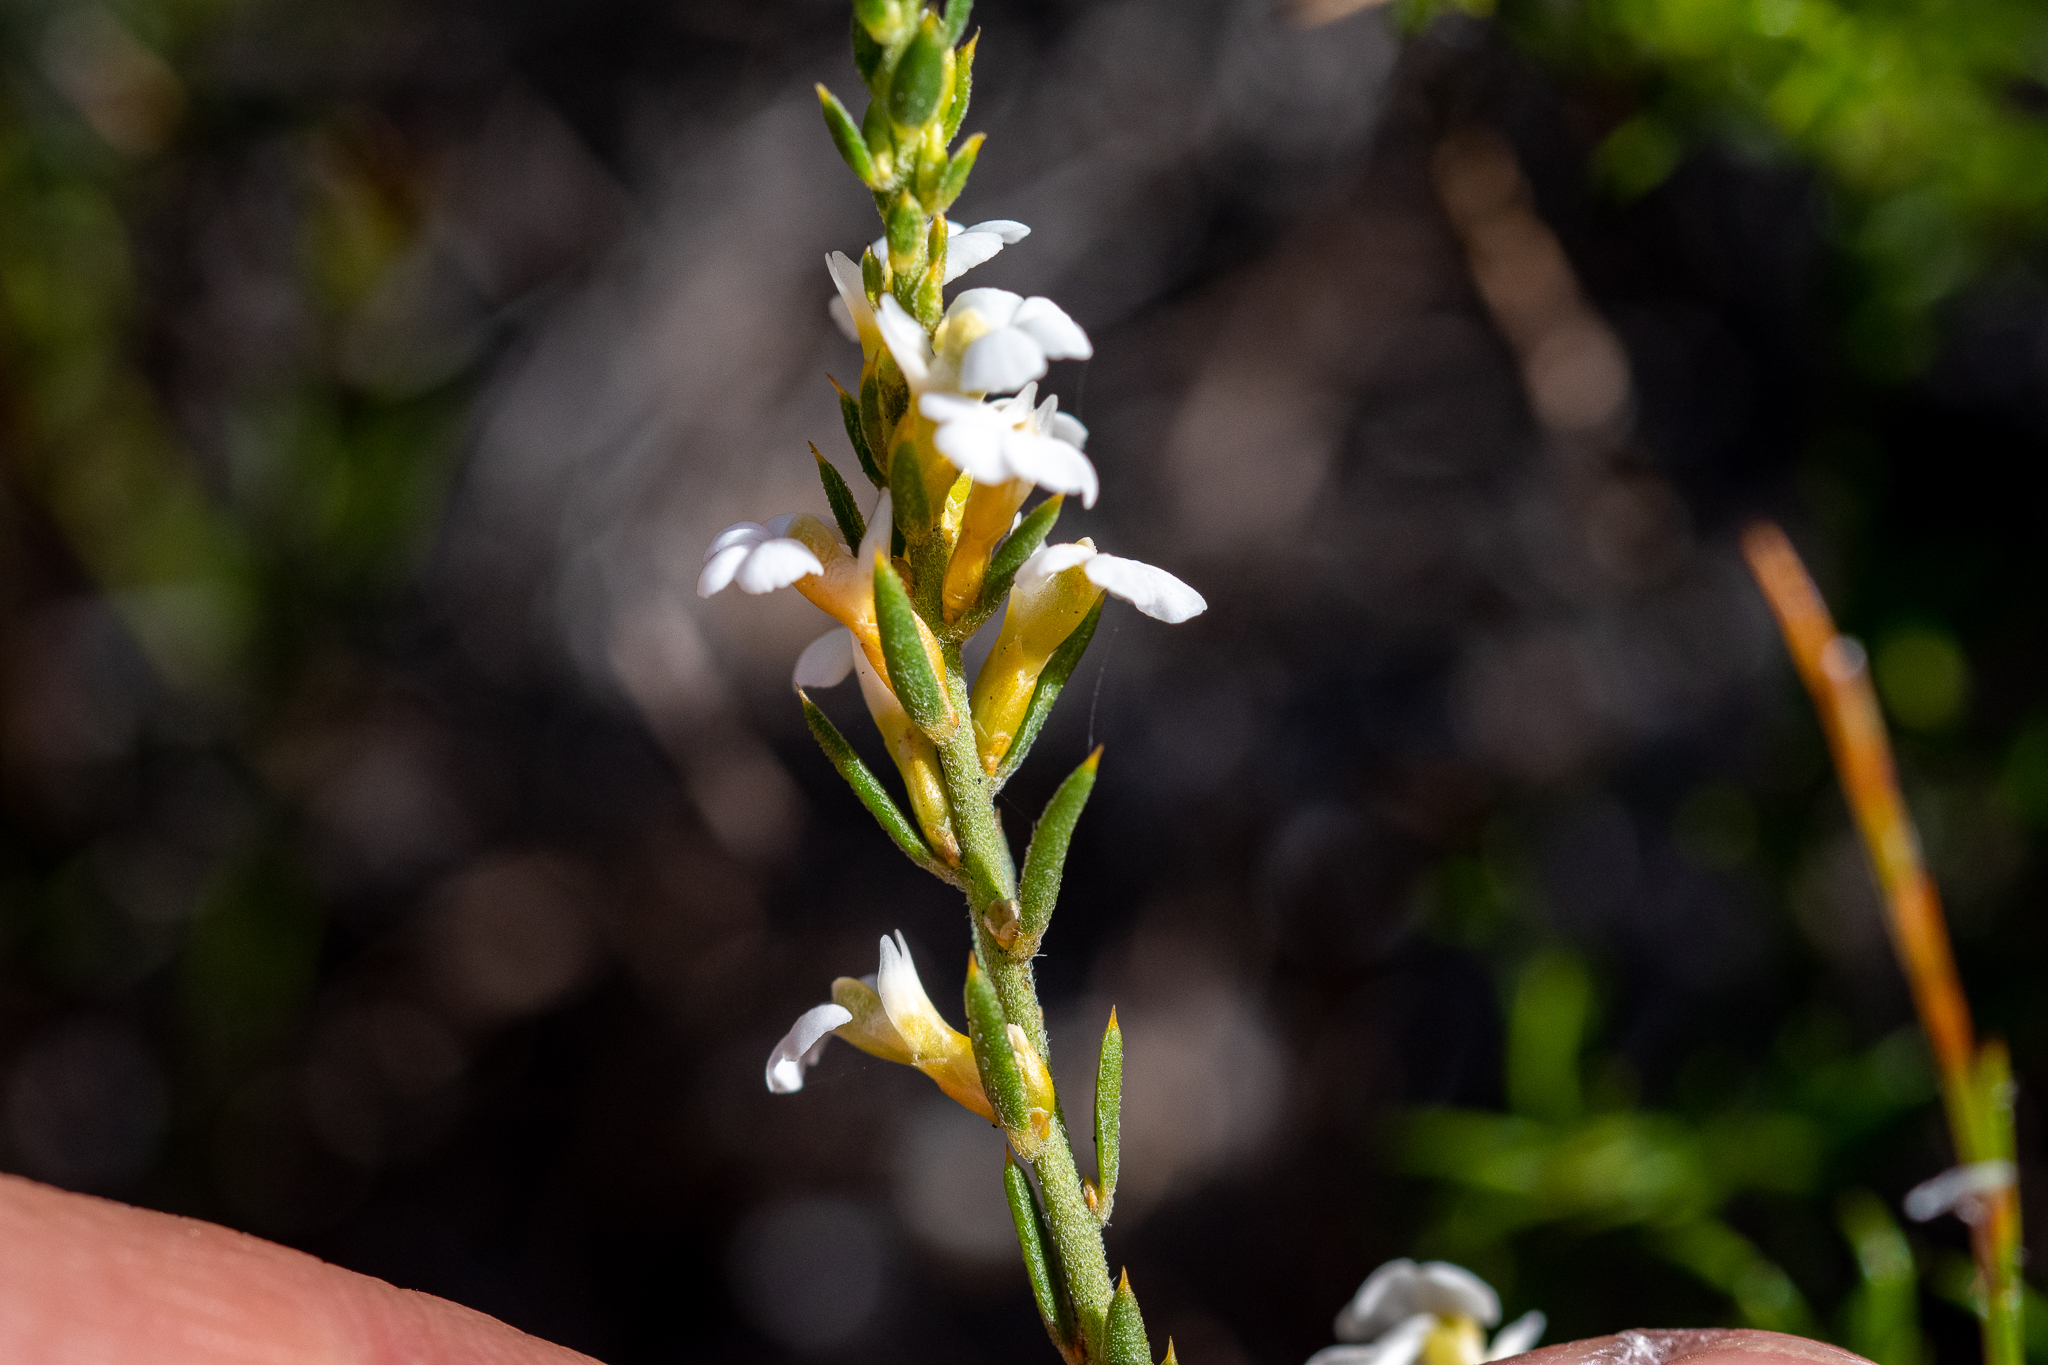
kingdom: Plantae
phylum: Tracheophyta
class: Magnoliopsida
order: Fabales
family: Polygalaceae
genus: Muraltia
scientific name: Muraltia satureioides
